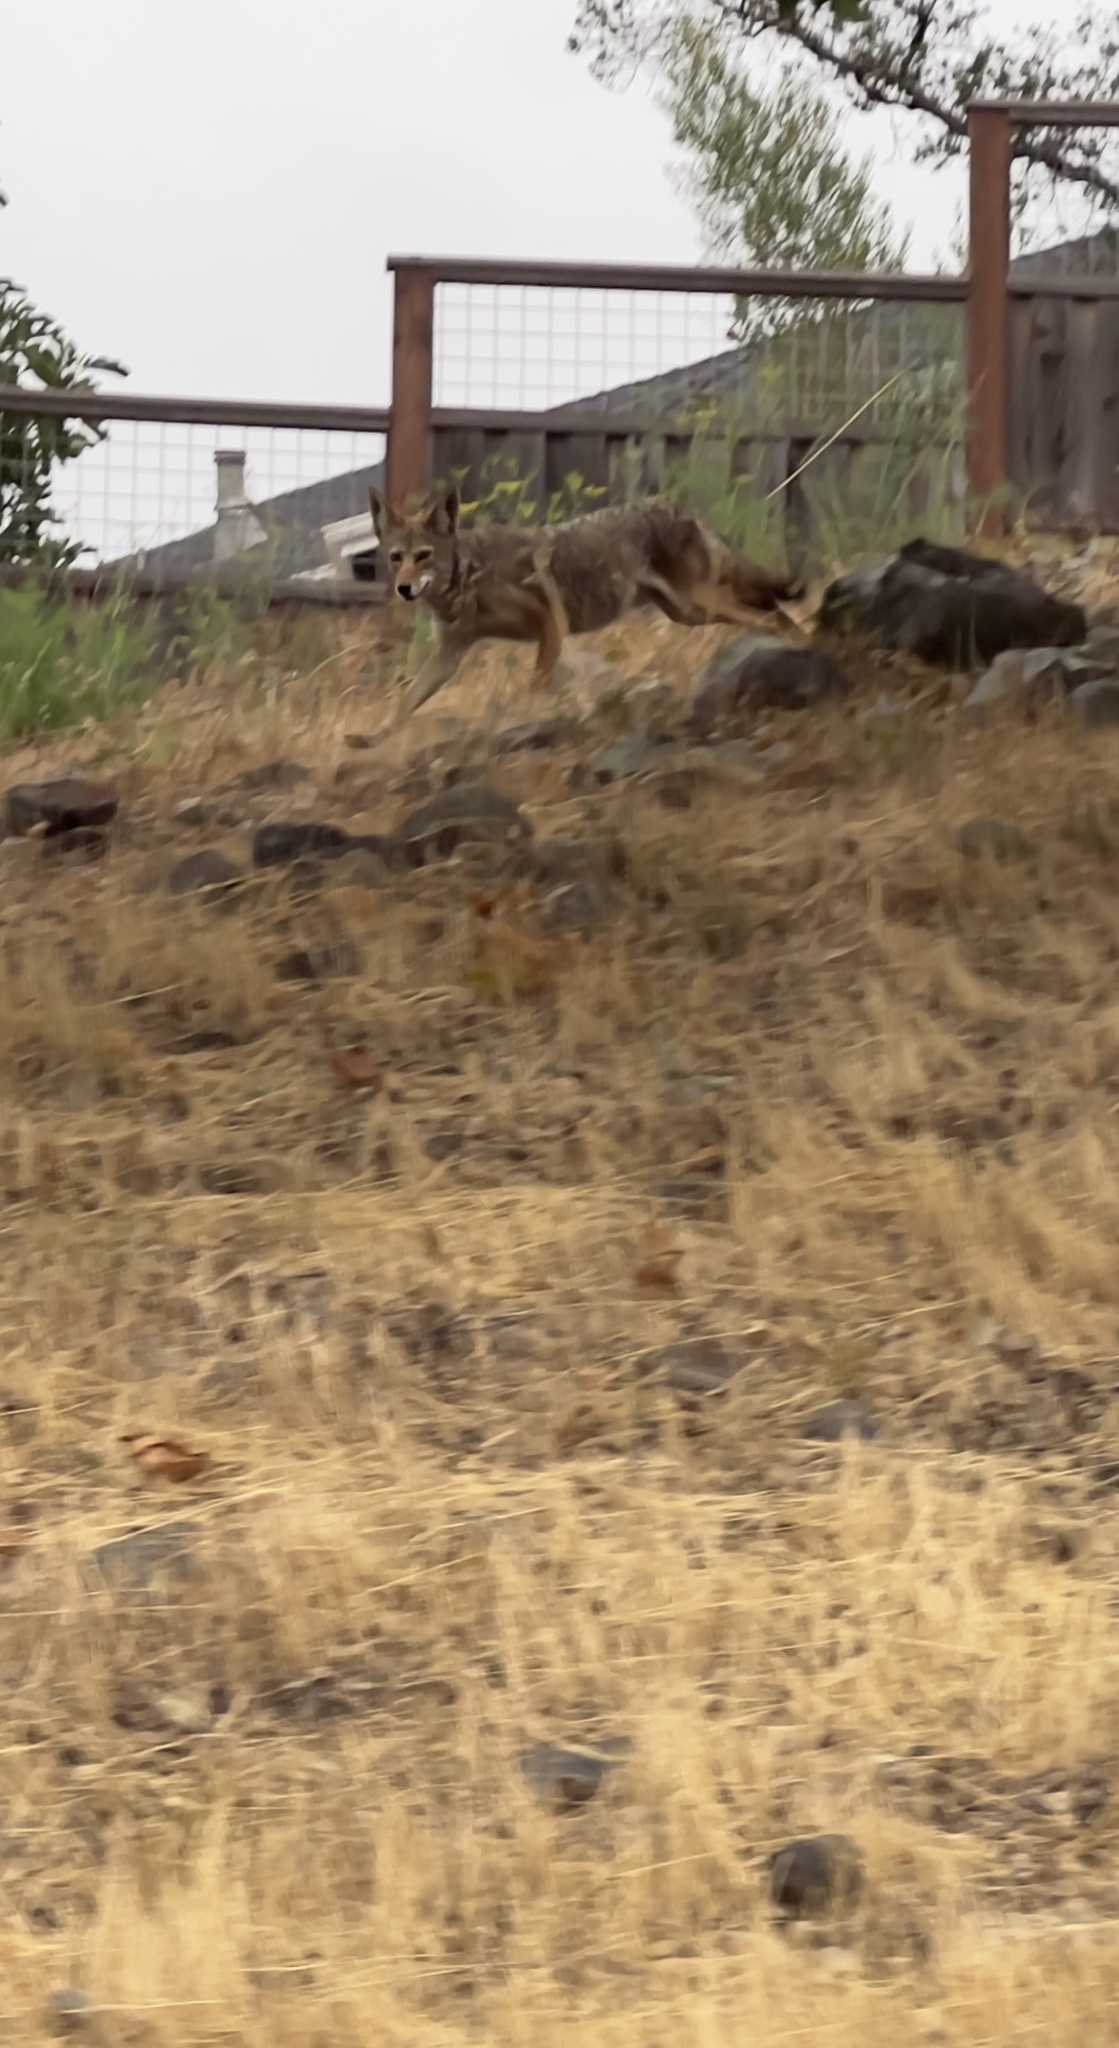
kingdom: Animalia
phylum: Chordata
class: Mammalia
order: Carnivora
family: Canidae
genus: Canis
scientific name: Canis latrans
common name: Coyote
